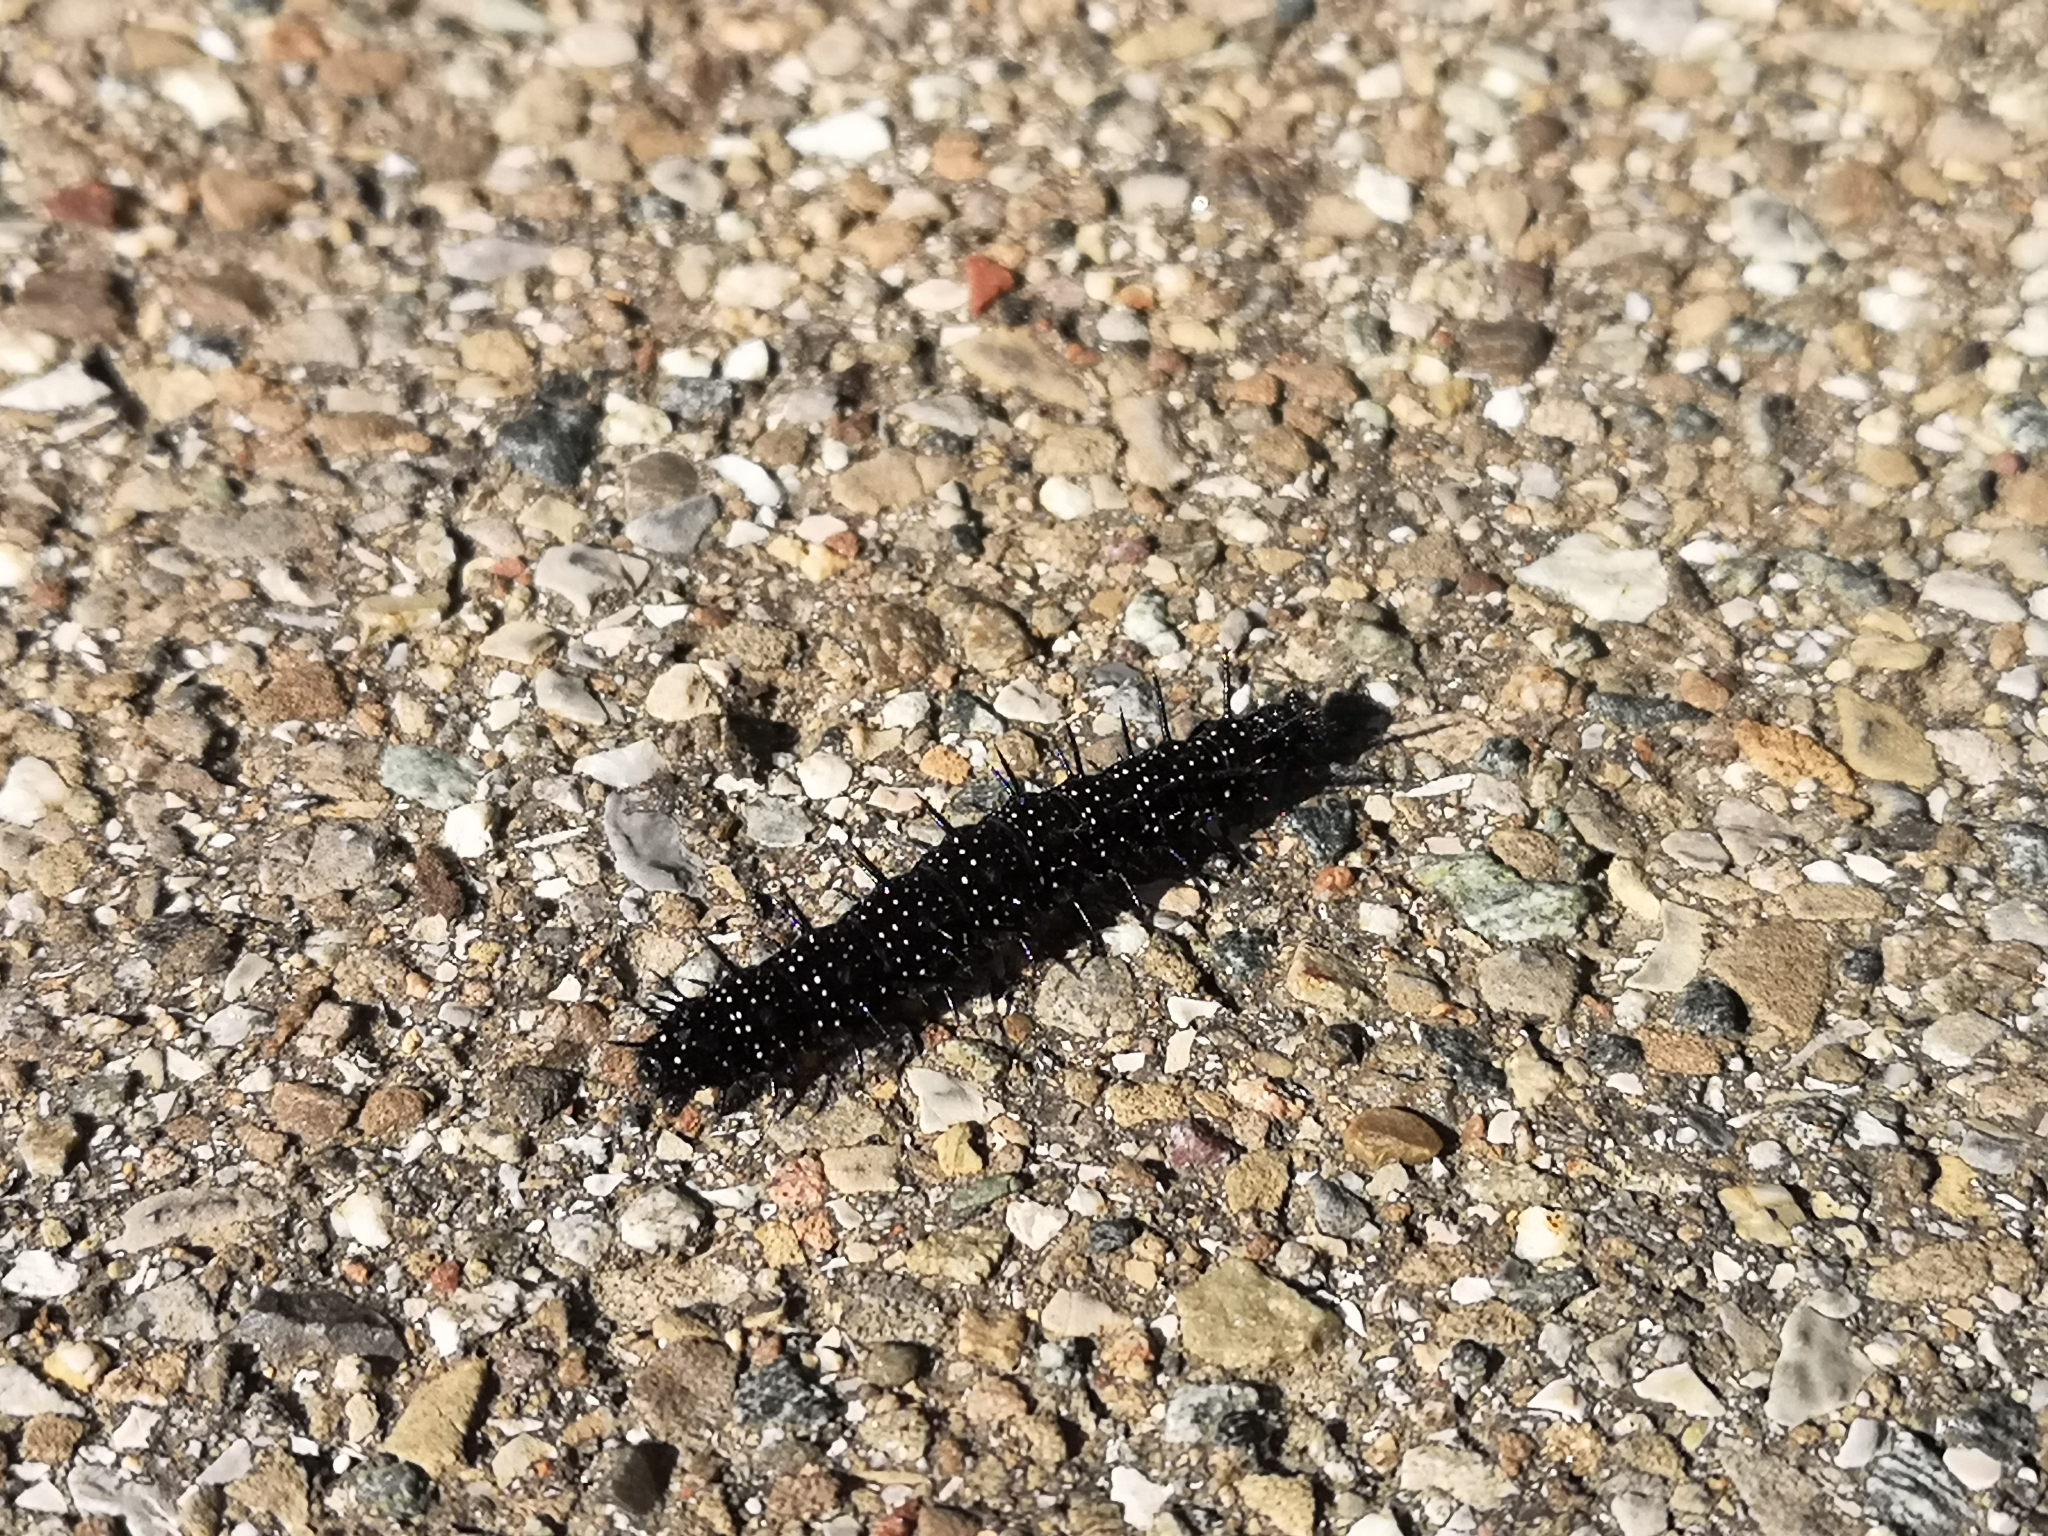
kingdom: Animalia
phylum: Arthropoda
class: Insecta
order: Lepidoptera
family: Nymphalidae
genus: Aglais
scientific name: Aglais io
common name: Peacock
